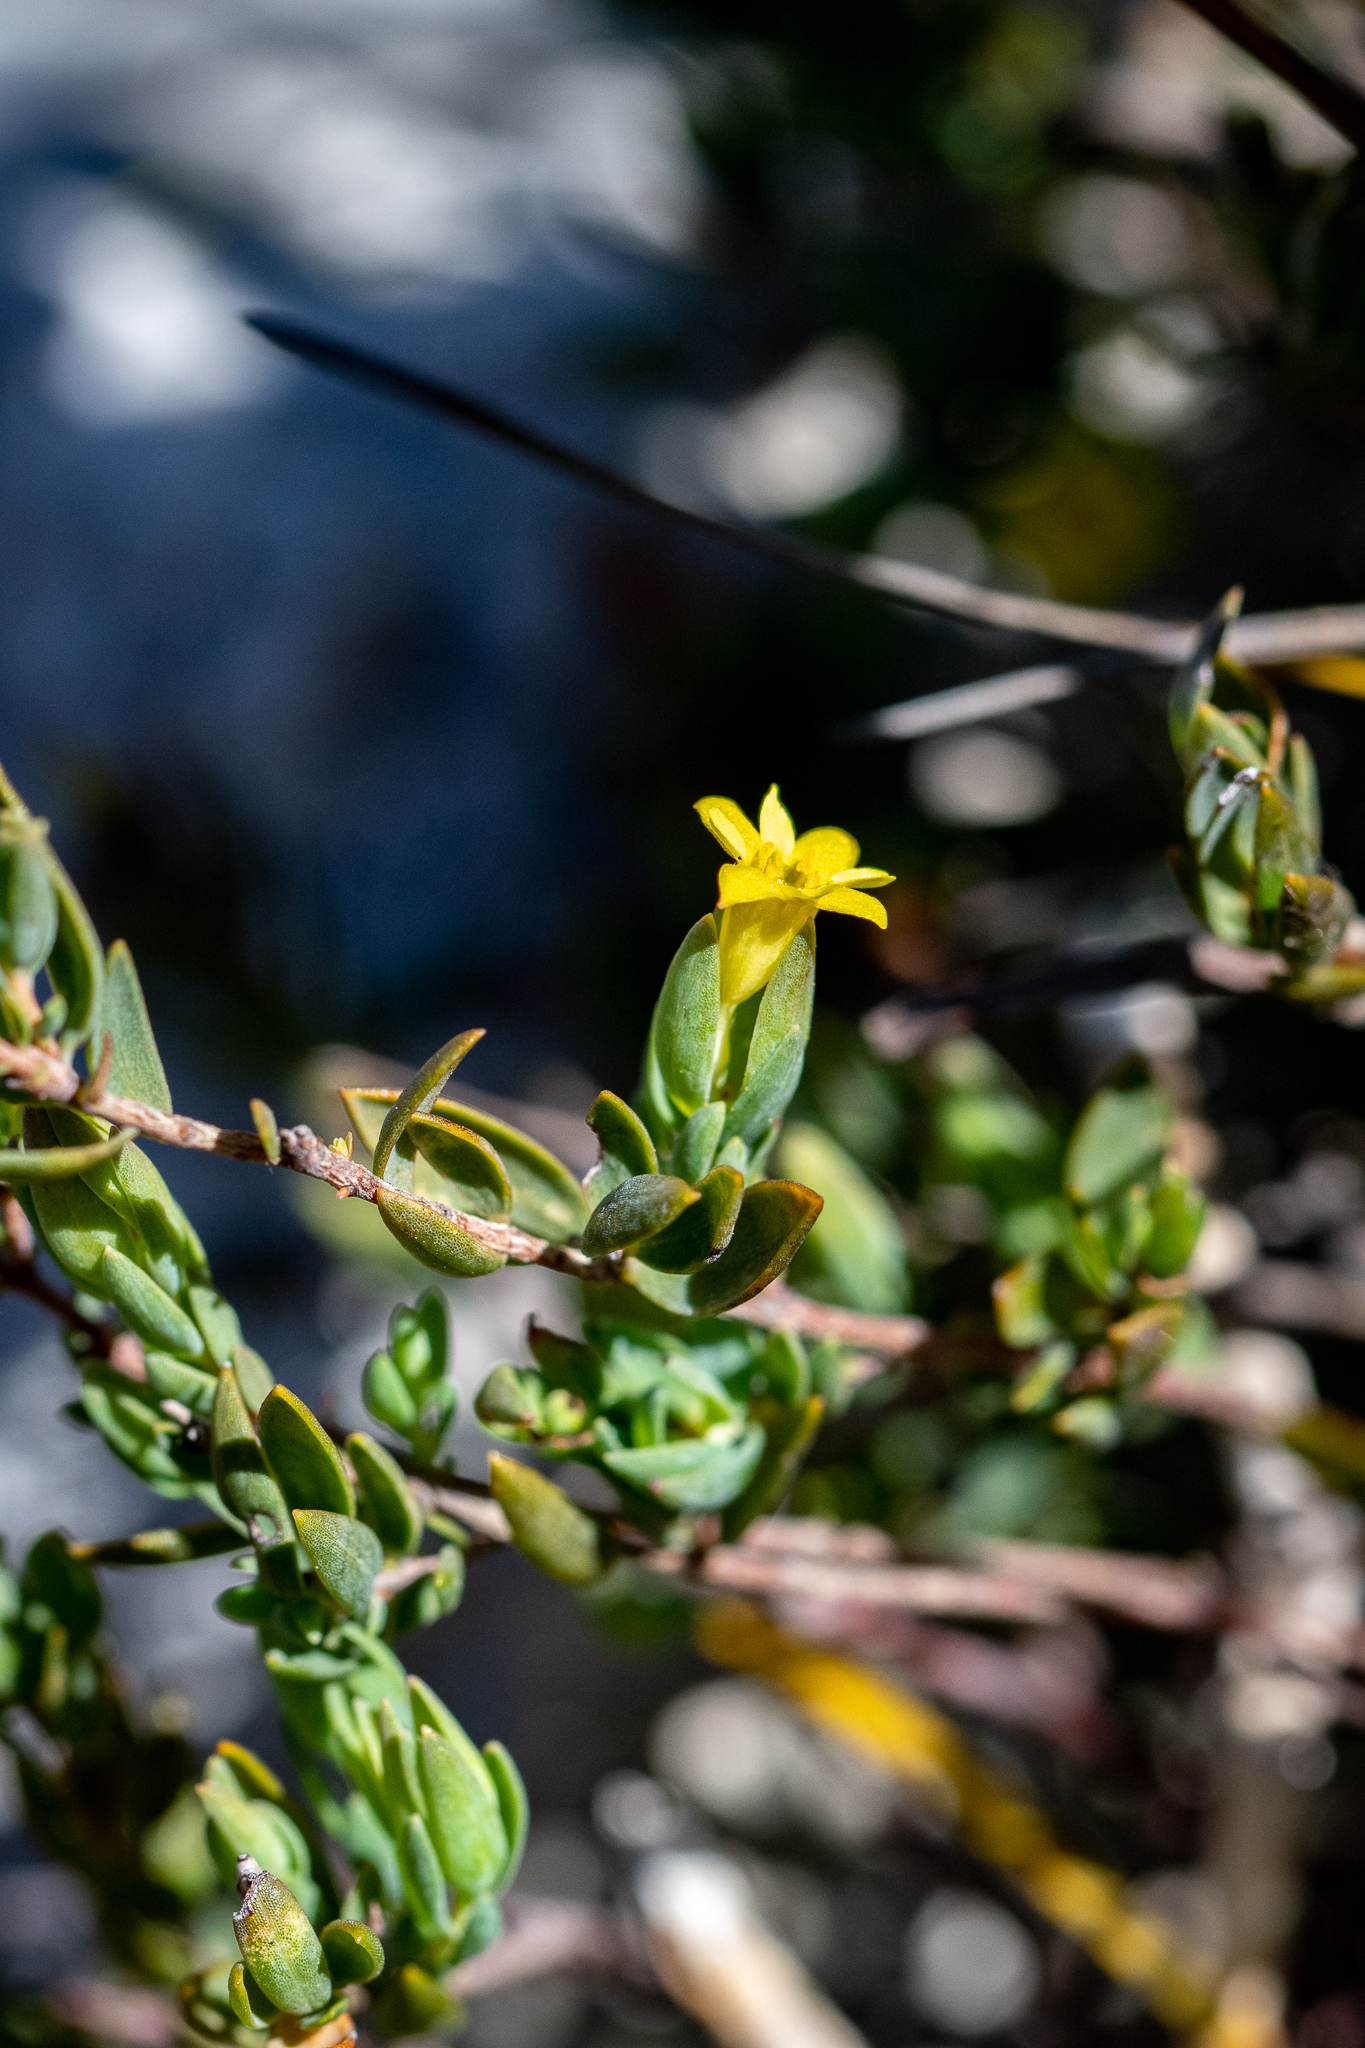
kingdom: Plantae
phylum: Tracheophyta
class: Magnoliopsida
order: Malvales
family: Thymelaeaceae
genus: Gnidia
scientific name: Gnidia juniperifolia
